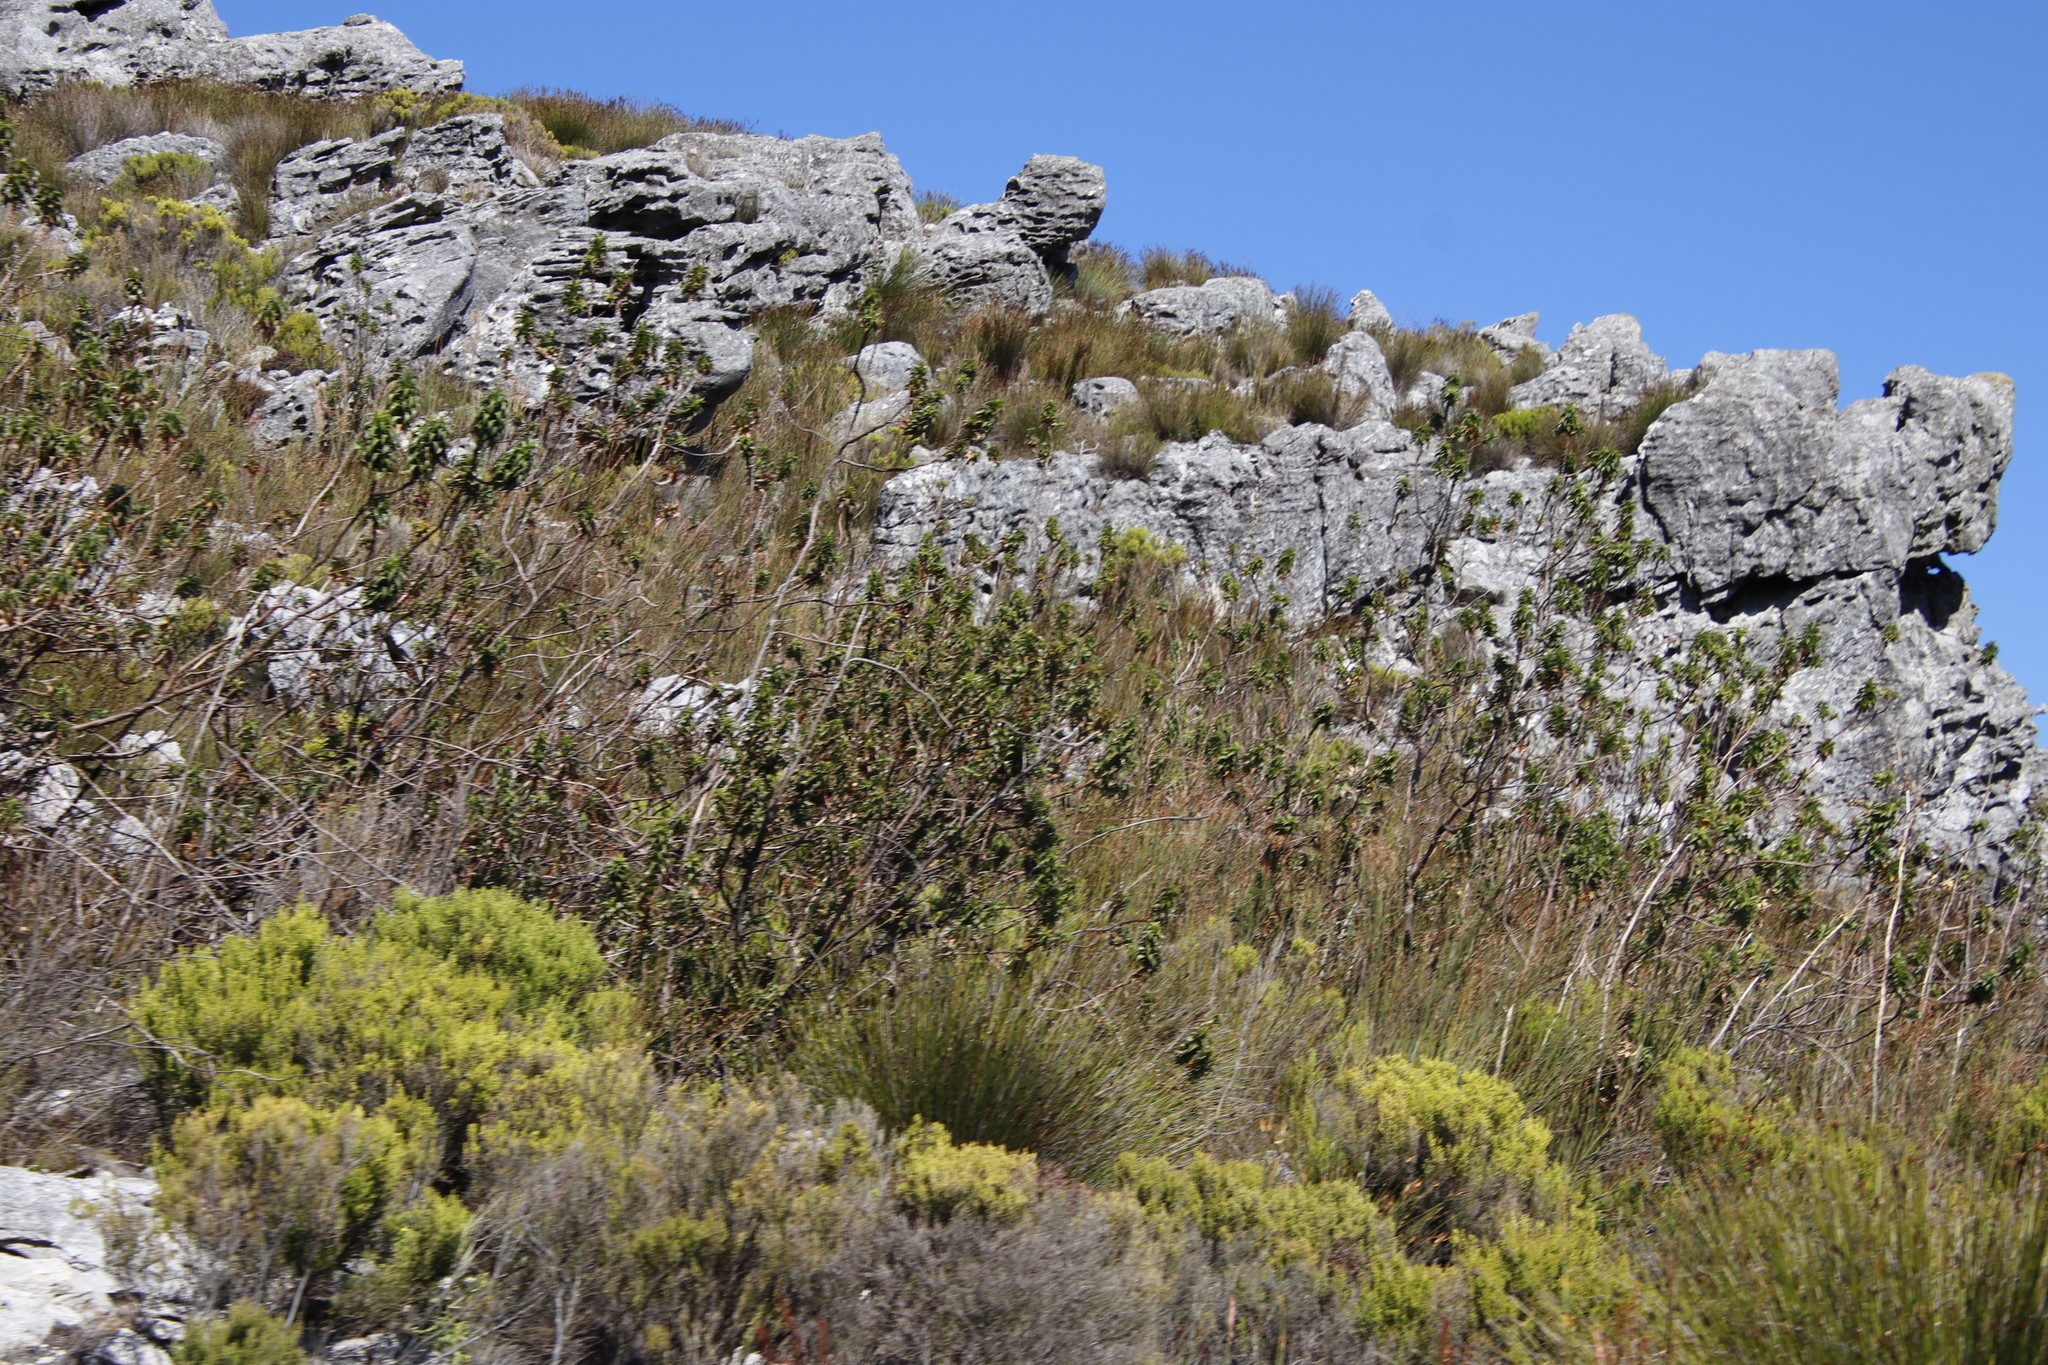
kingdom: Plantae
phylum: Tracheophyta
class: Magnoliopsida
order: Rosales
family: Rosaceae
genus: Cliffortia
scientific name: Cliffortia recurvata
